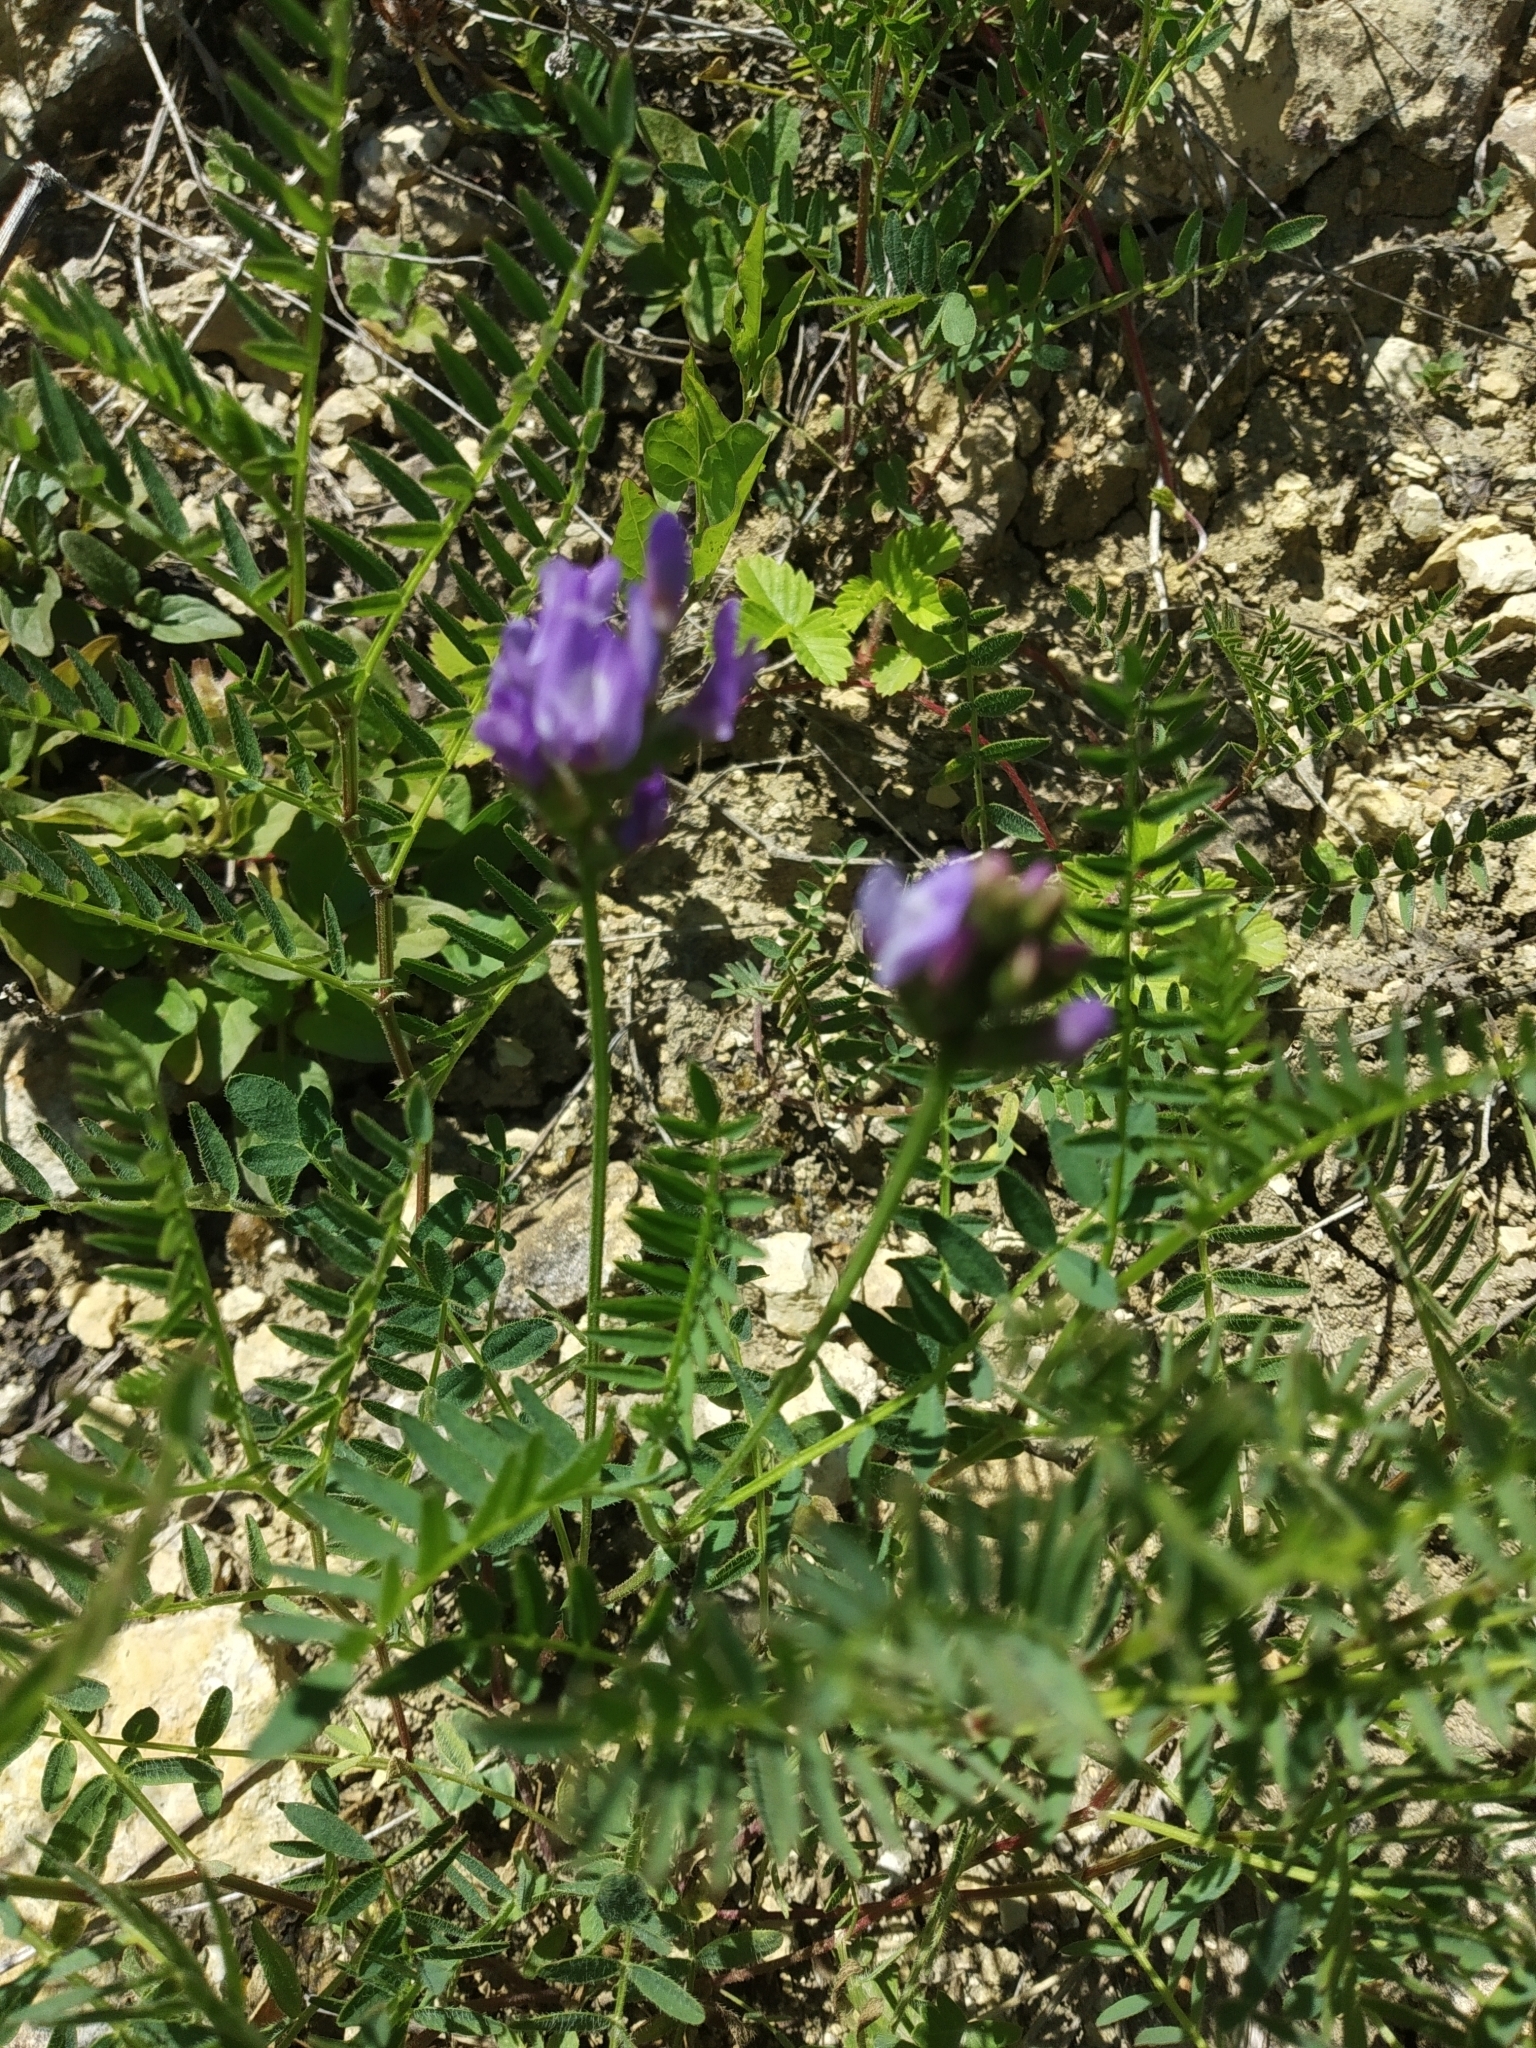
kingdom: Plantae
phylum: Tracheophyta
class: Magnoliopsida
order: Fabales
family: Fabaceae
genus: Astragalus
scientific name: Astragalus danicus
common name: Purple milk-vetch
